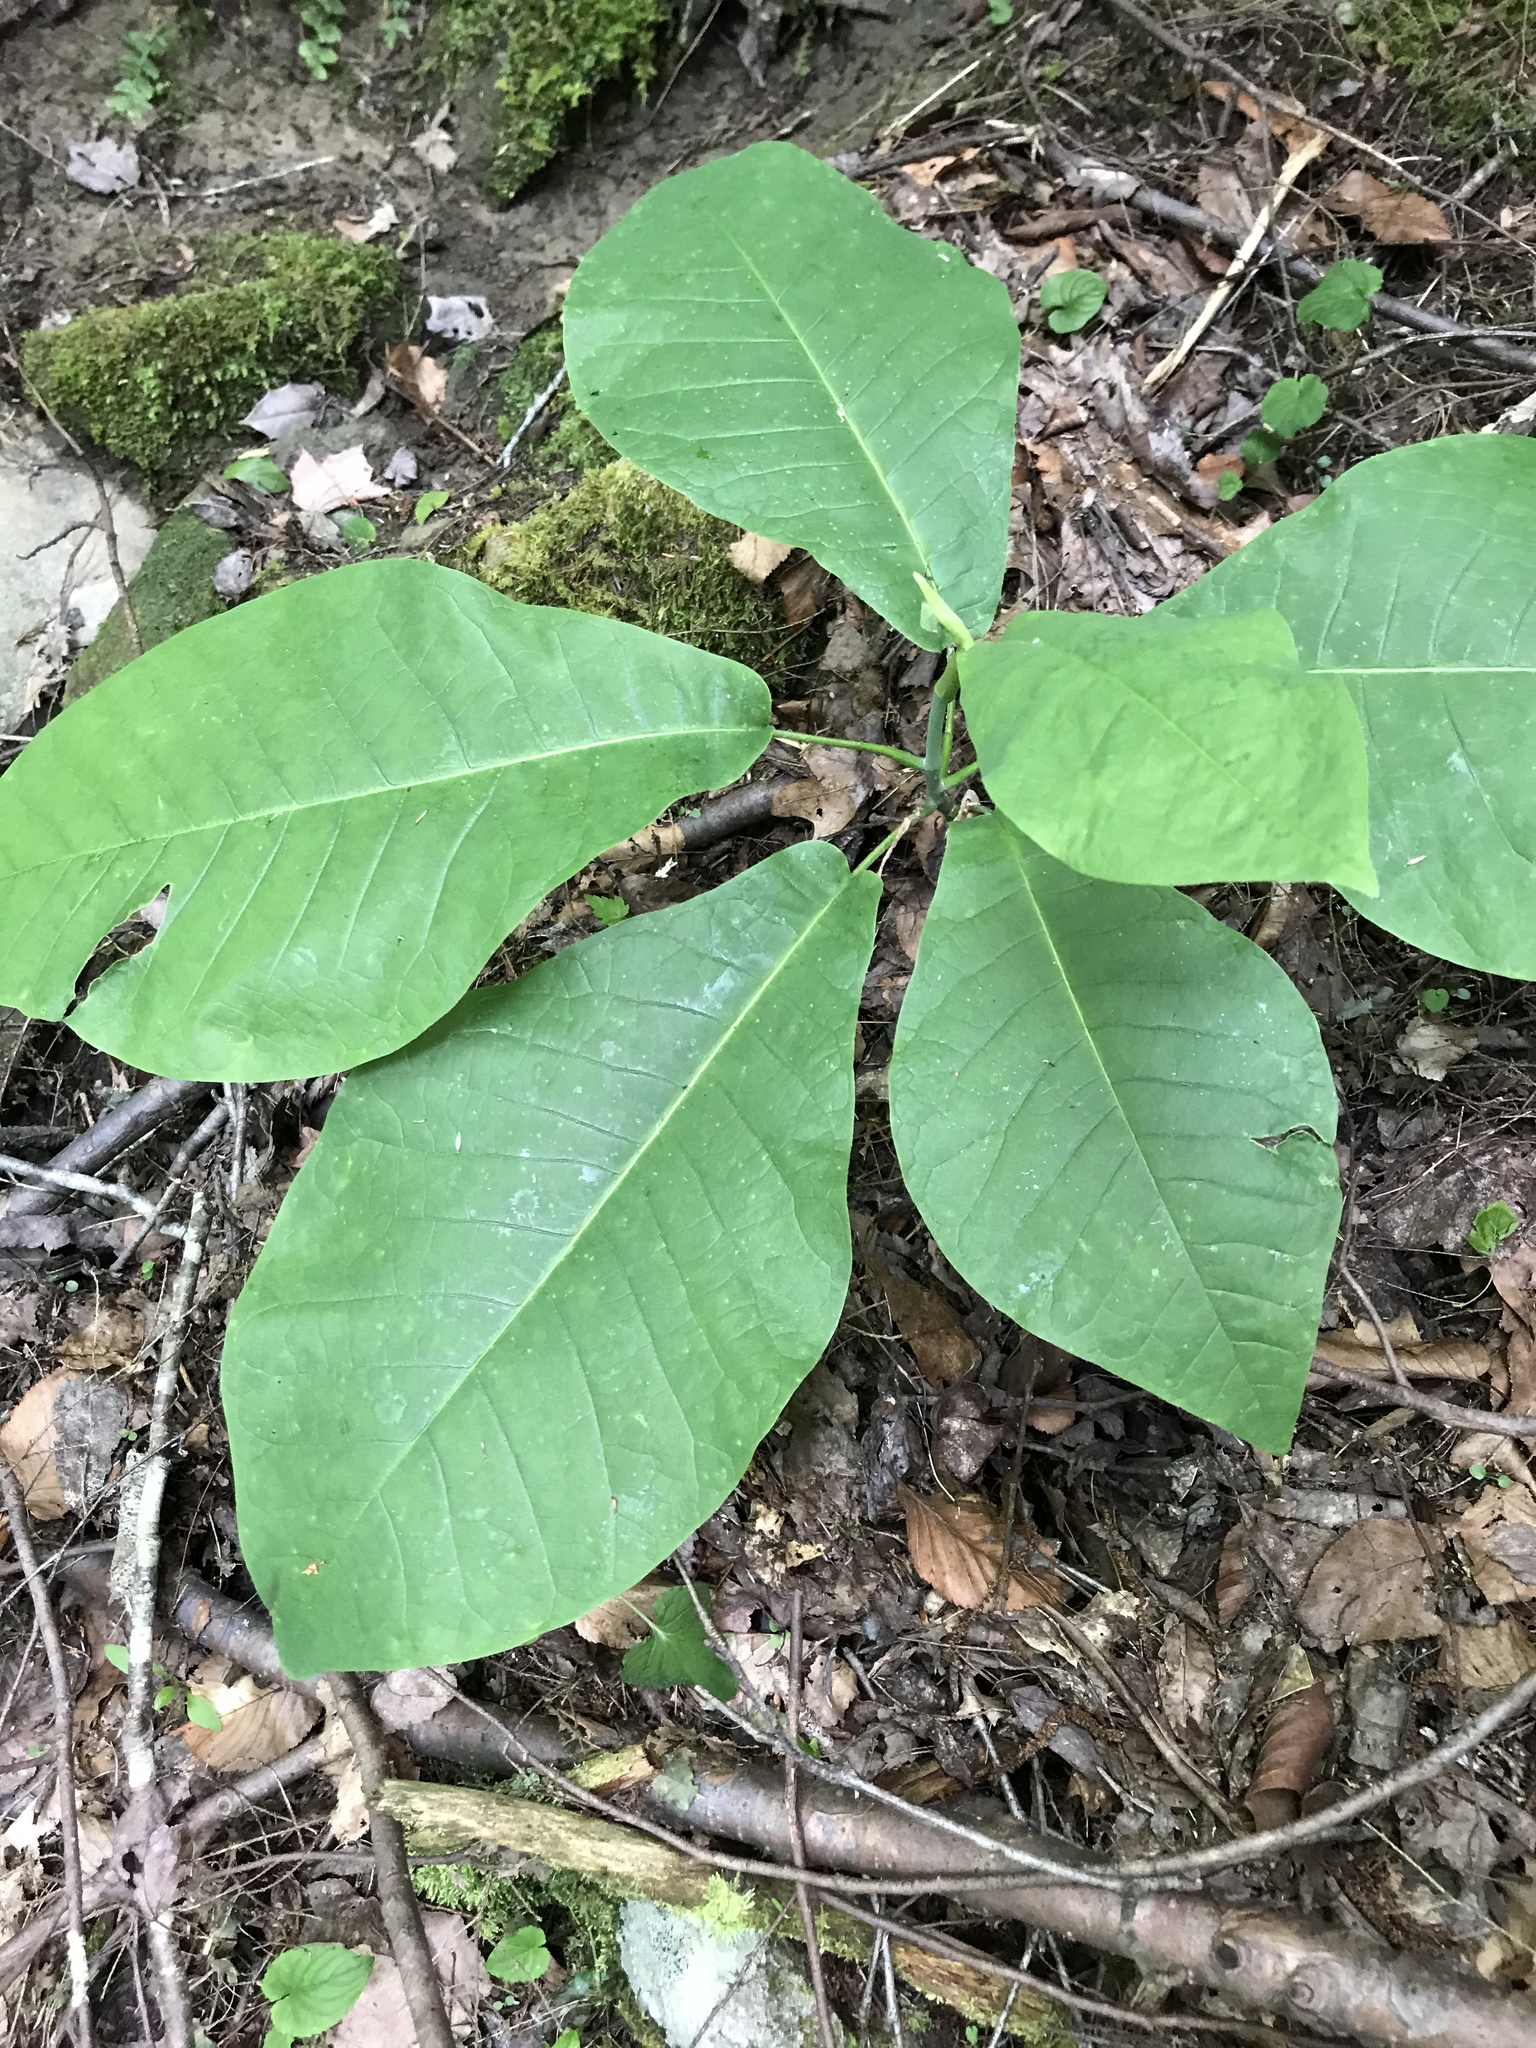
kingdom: Plantae
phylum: Tracheophyta
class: Magnoliopsida
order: Magnoliales
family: Magnoliaceae
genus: Magnolia
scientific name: Magnolia macrophylla
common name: Big-leaf magnolia
